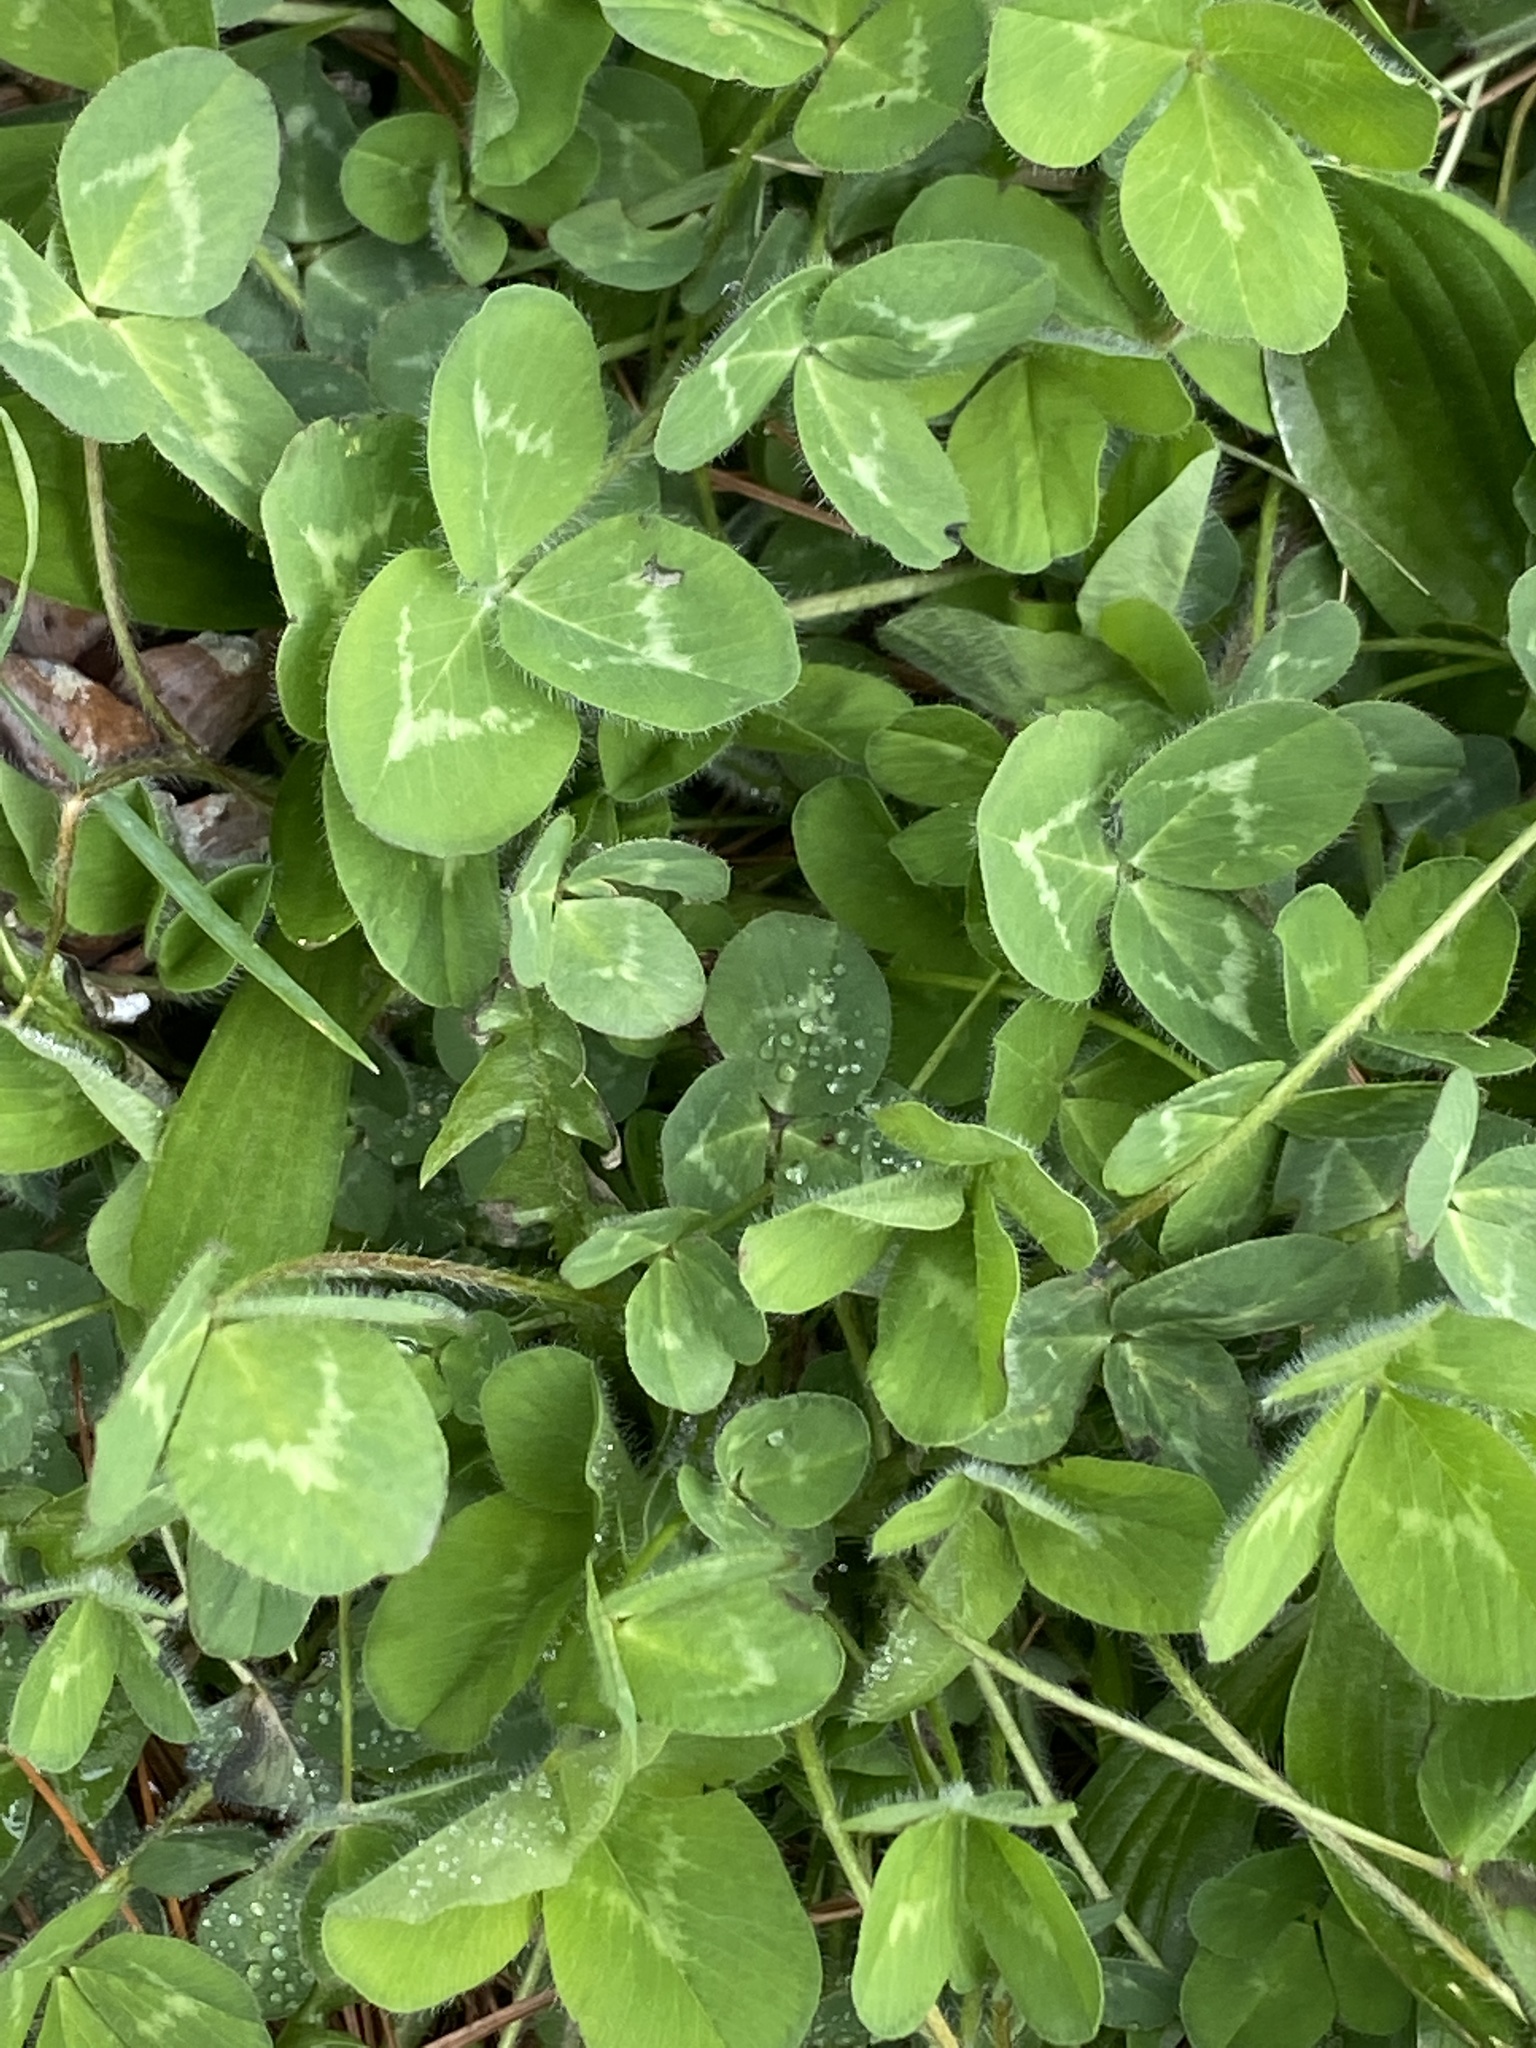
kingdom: Plantae
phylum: Tracheophyta
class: Magnoliopsida
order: Fabales
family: Fabaceae
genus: Trifolium
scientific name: Trifolium pratense
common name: Red clover
